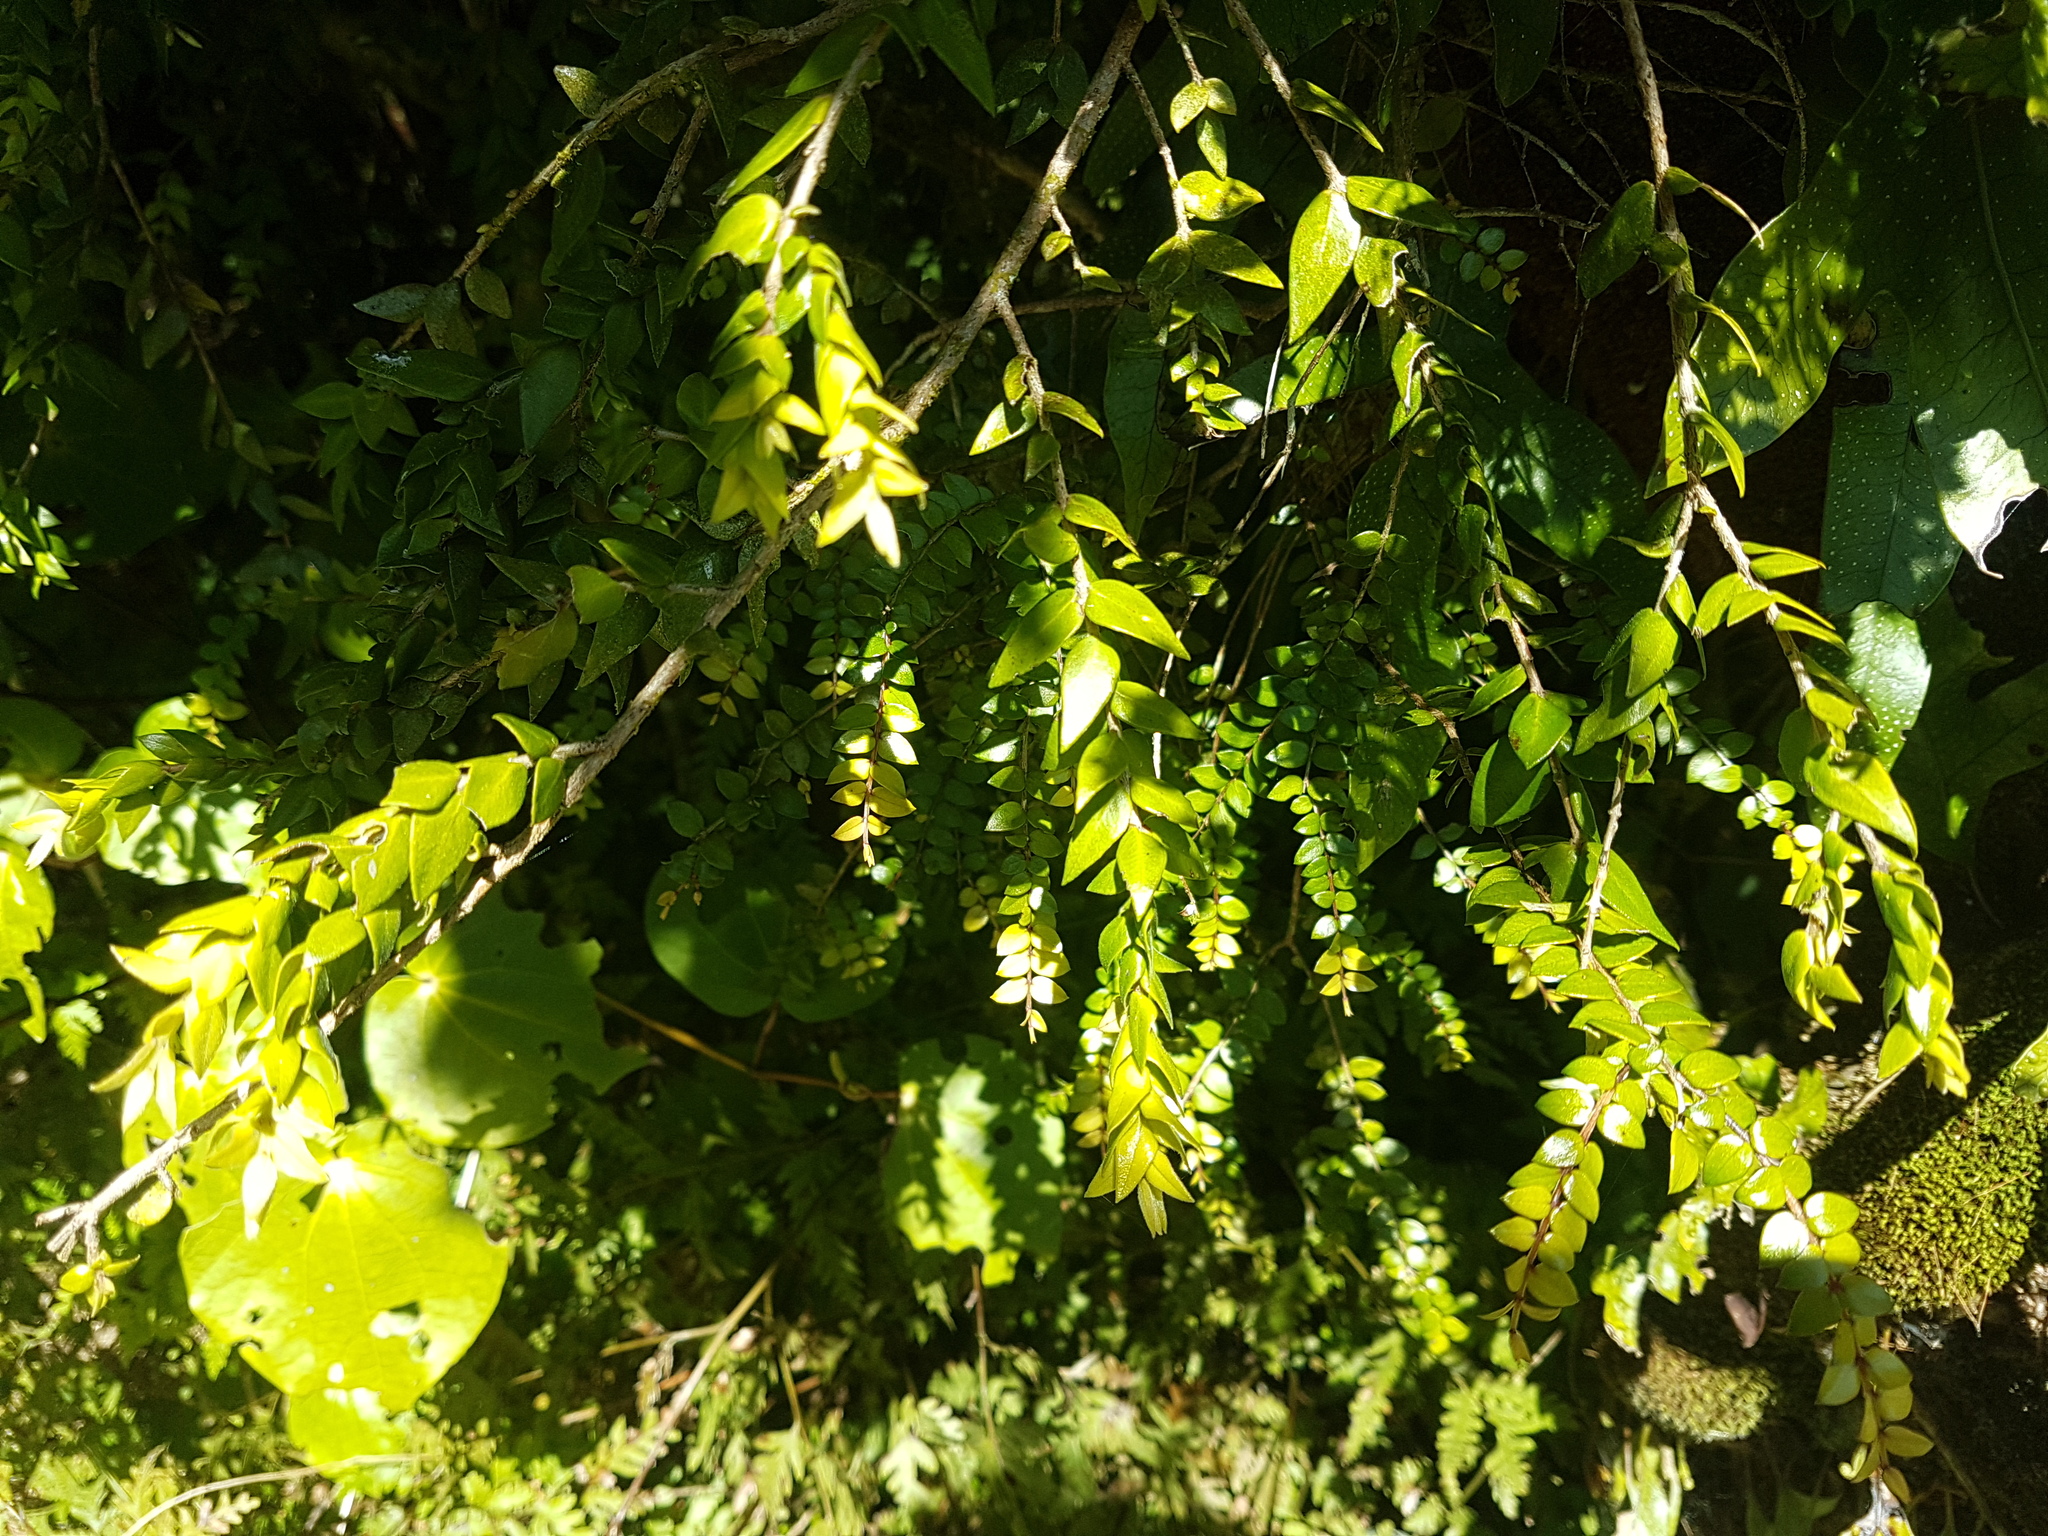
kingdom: Plantae
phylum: Tracheophyta
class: Magnoliopsida
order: Myrtales
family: Myrtaceae
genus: Metrosideros
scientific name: Metrosideros colensoi
